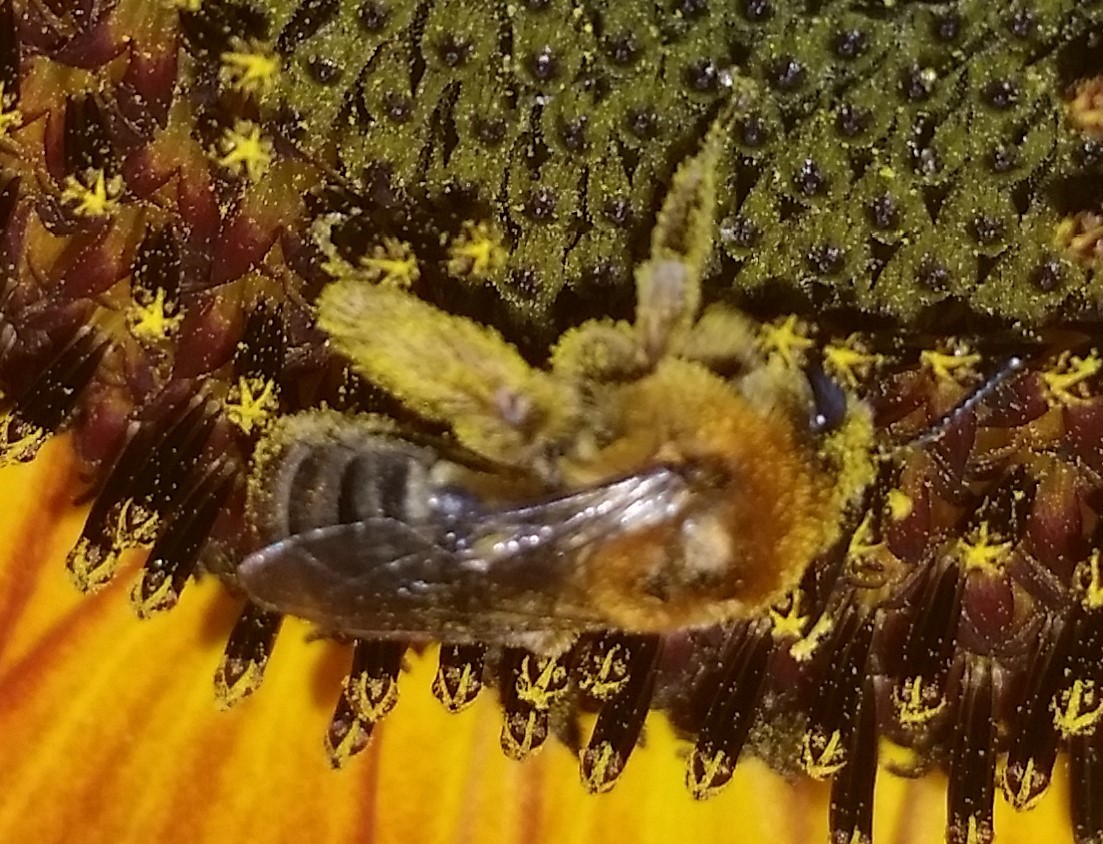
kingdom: Animalia
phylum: Arthropoda
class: Insecta
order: Hymenoptera
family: Apidae
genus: Melissodes
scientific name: Melissodes trinodis
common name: Dark-veined longhorn
